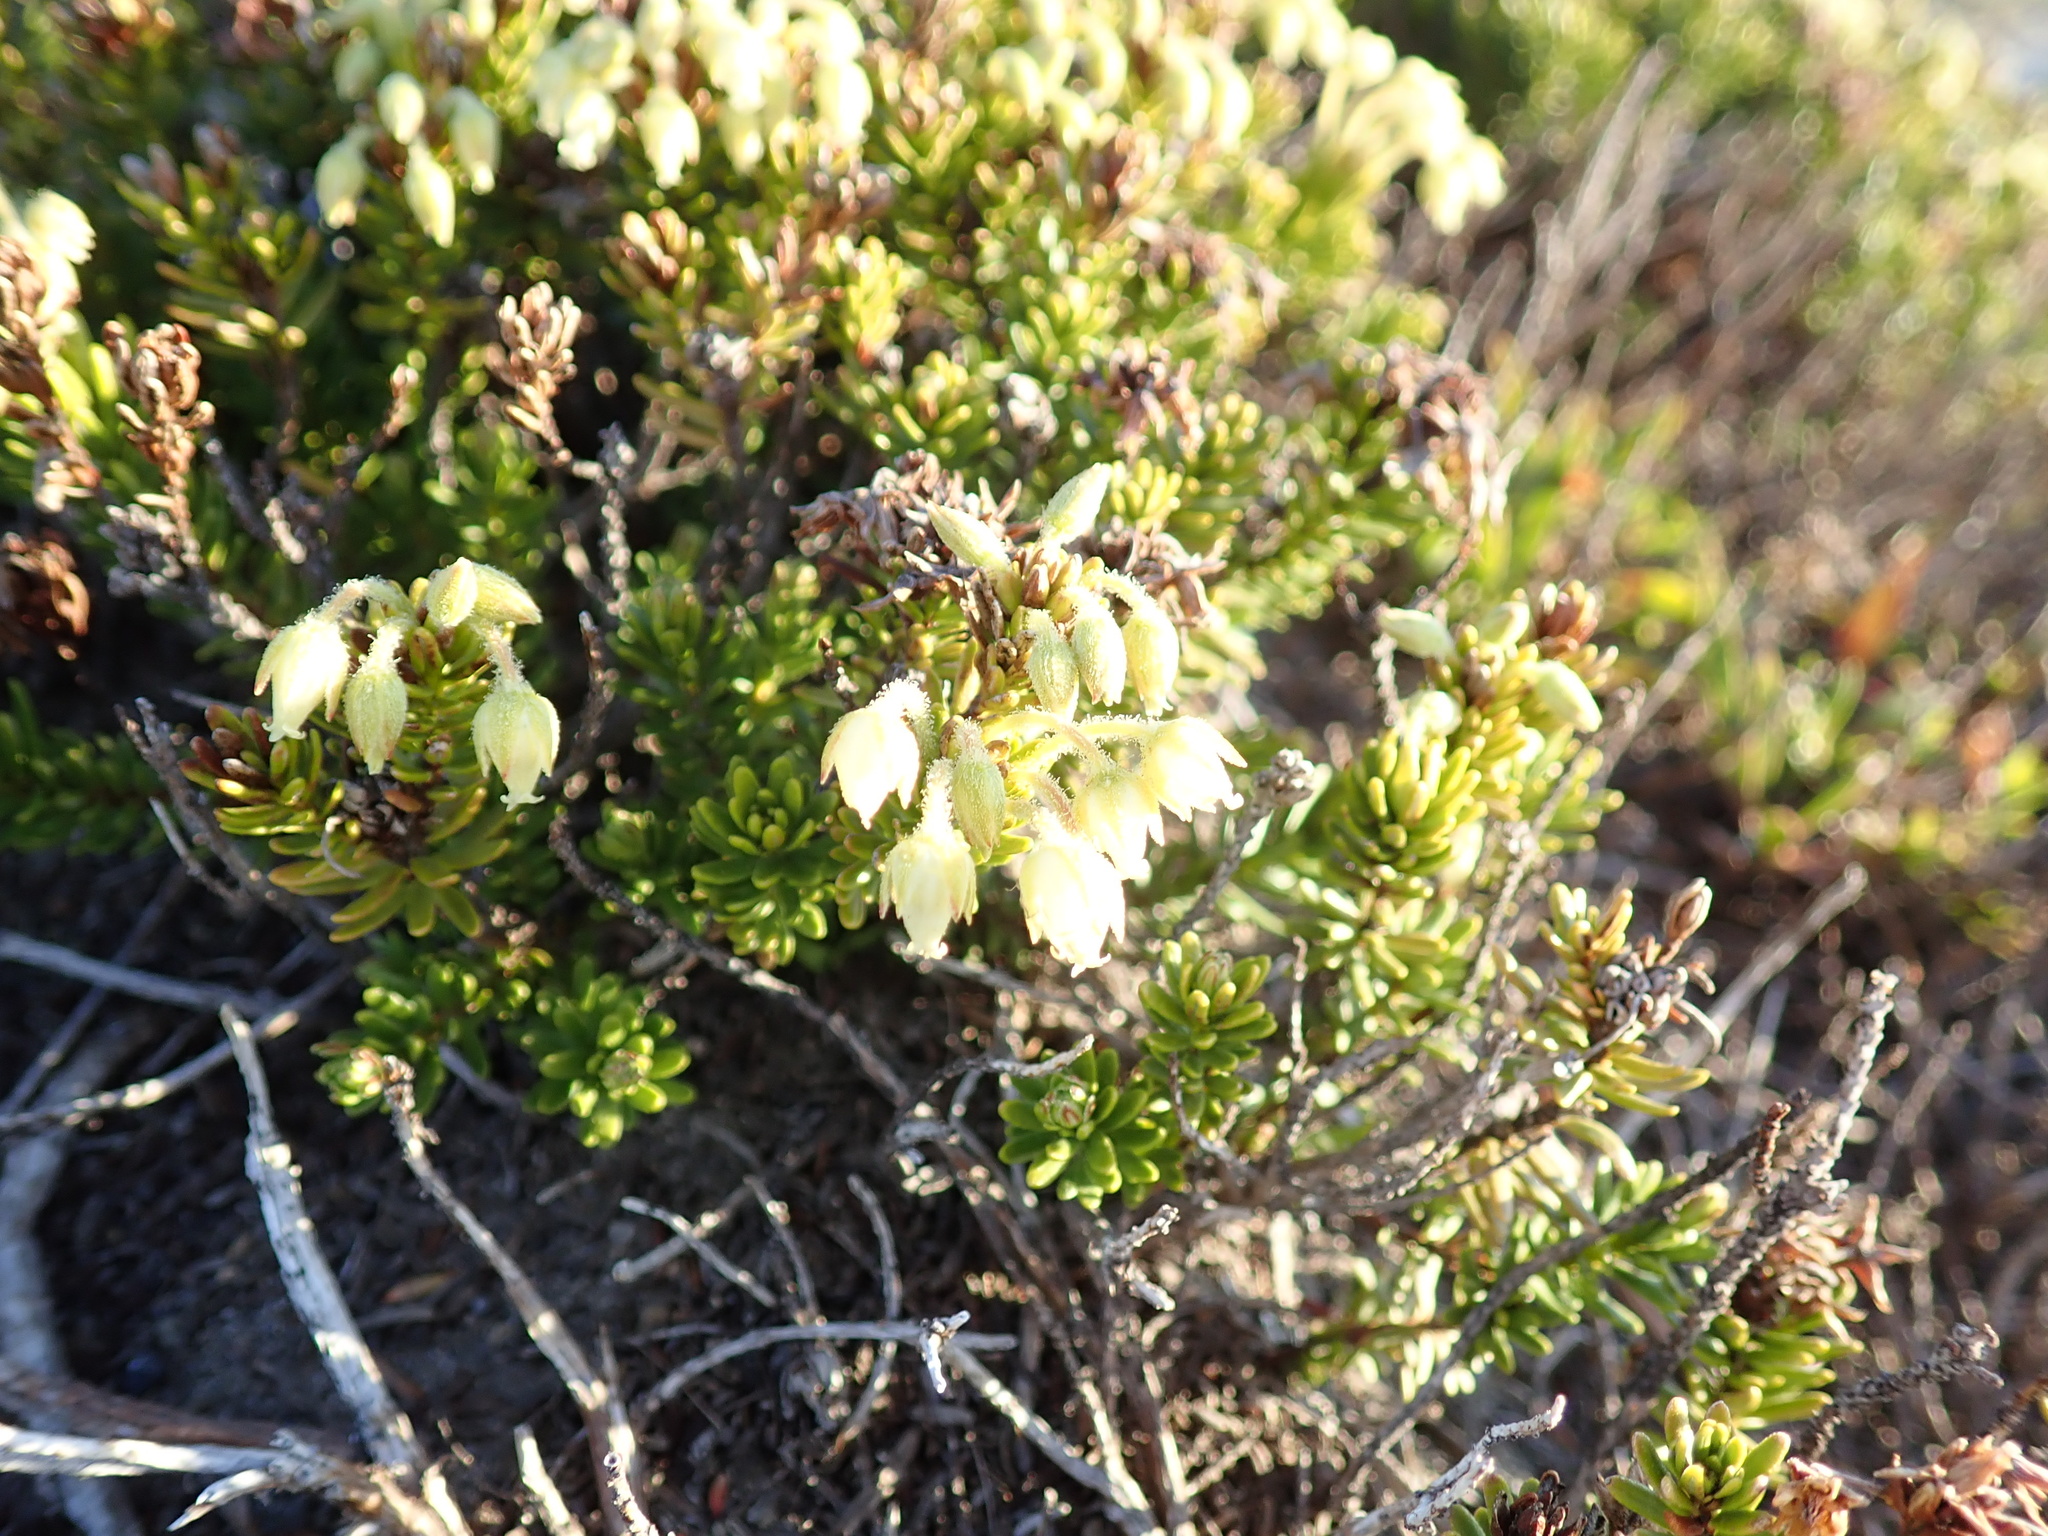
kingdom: Plantae
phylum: Tracheophyta
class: Magnoliopsida
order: Ericales
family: Ericaceae
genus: Phyllodoce
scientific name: Phyllodoce glanduliflora
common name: Cream mountain heather
